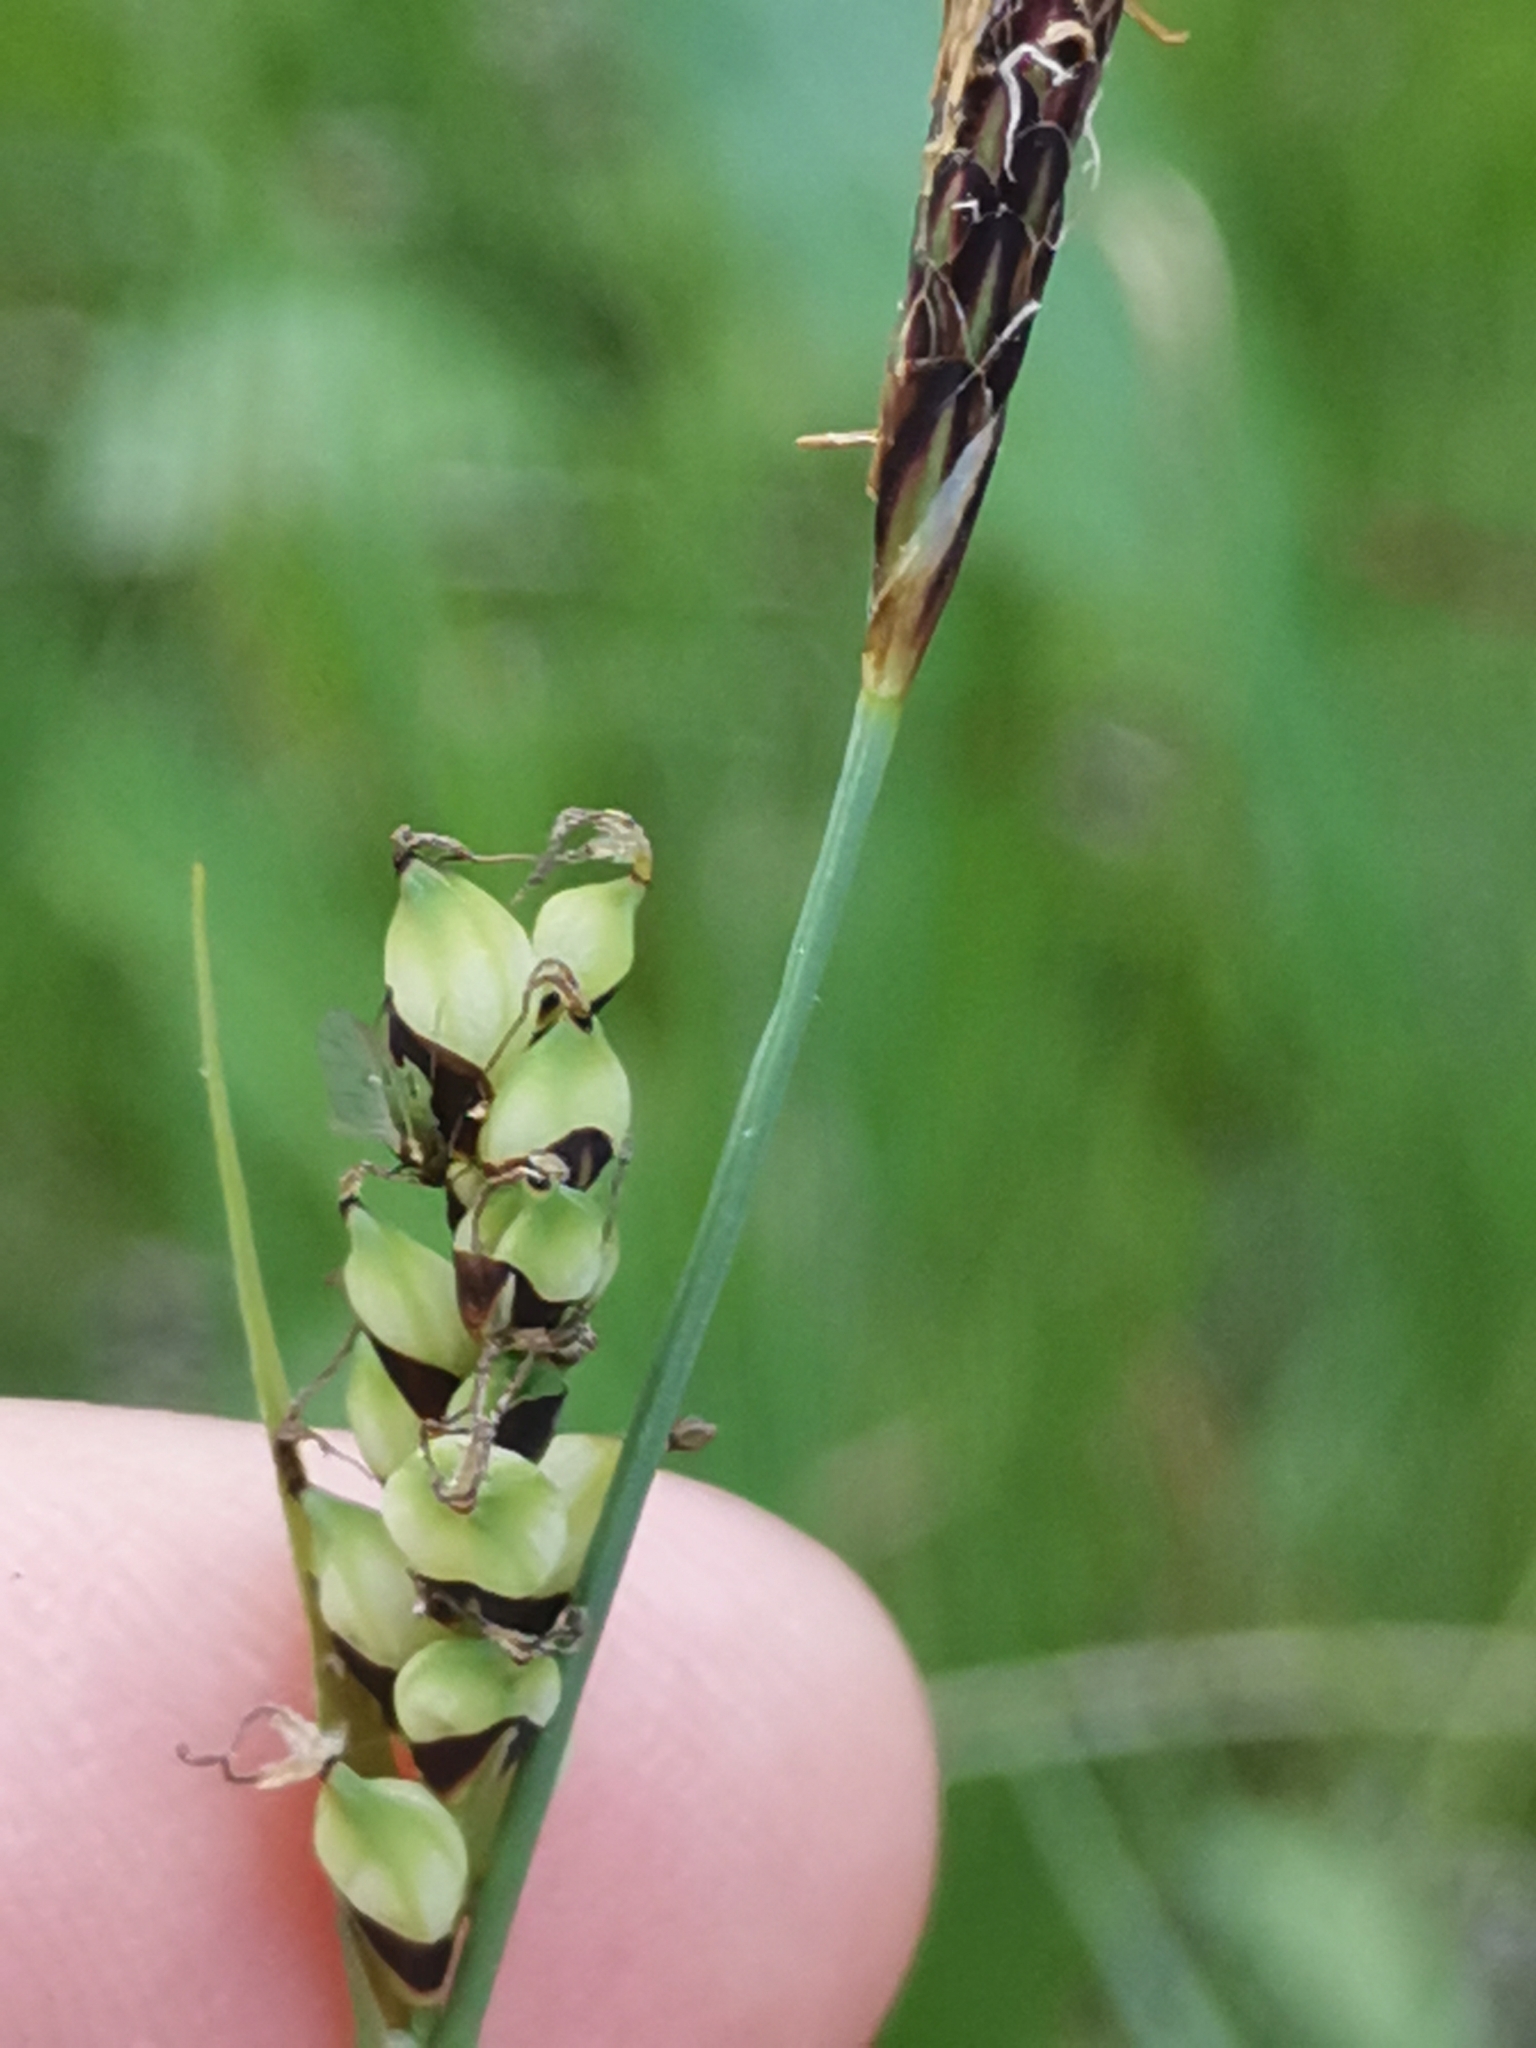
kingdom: Plantae
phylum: Tracheophyta
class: Liliopsida
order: Poales
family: Cyperaceae
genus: Carex
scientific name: Carex panicea
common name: Carnation sedge
